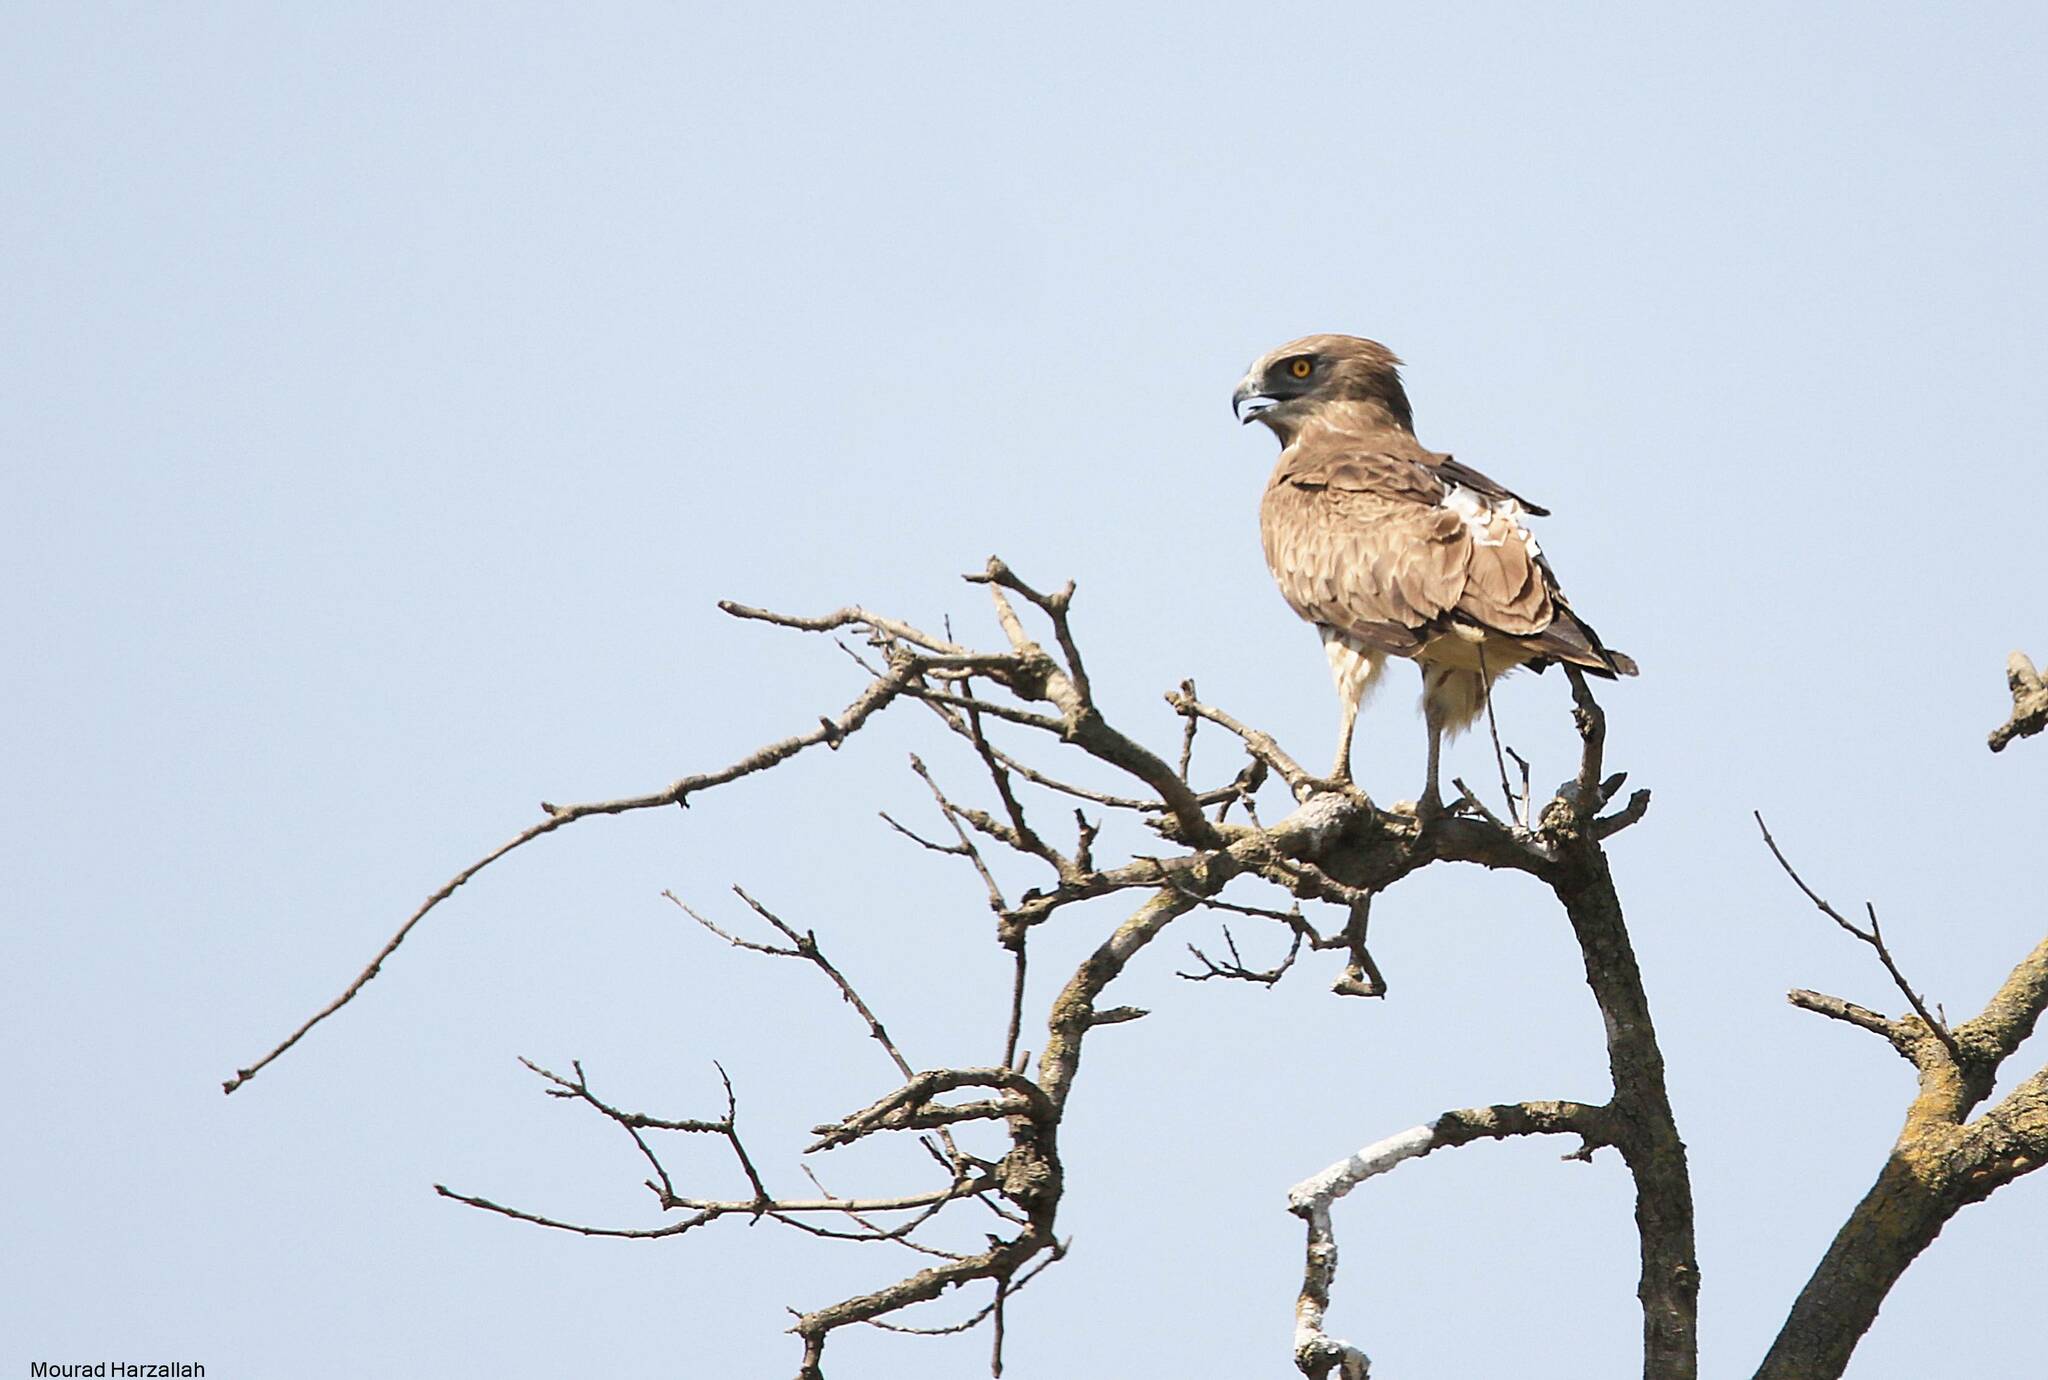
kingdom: Animalia
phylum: Chordata
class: Aves
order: Accipitriformes
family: Accipitridae
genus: Circaetus
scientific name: Circaetus gallicus
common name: Short-toed snake eagle
